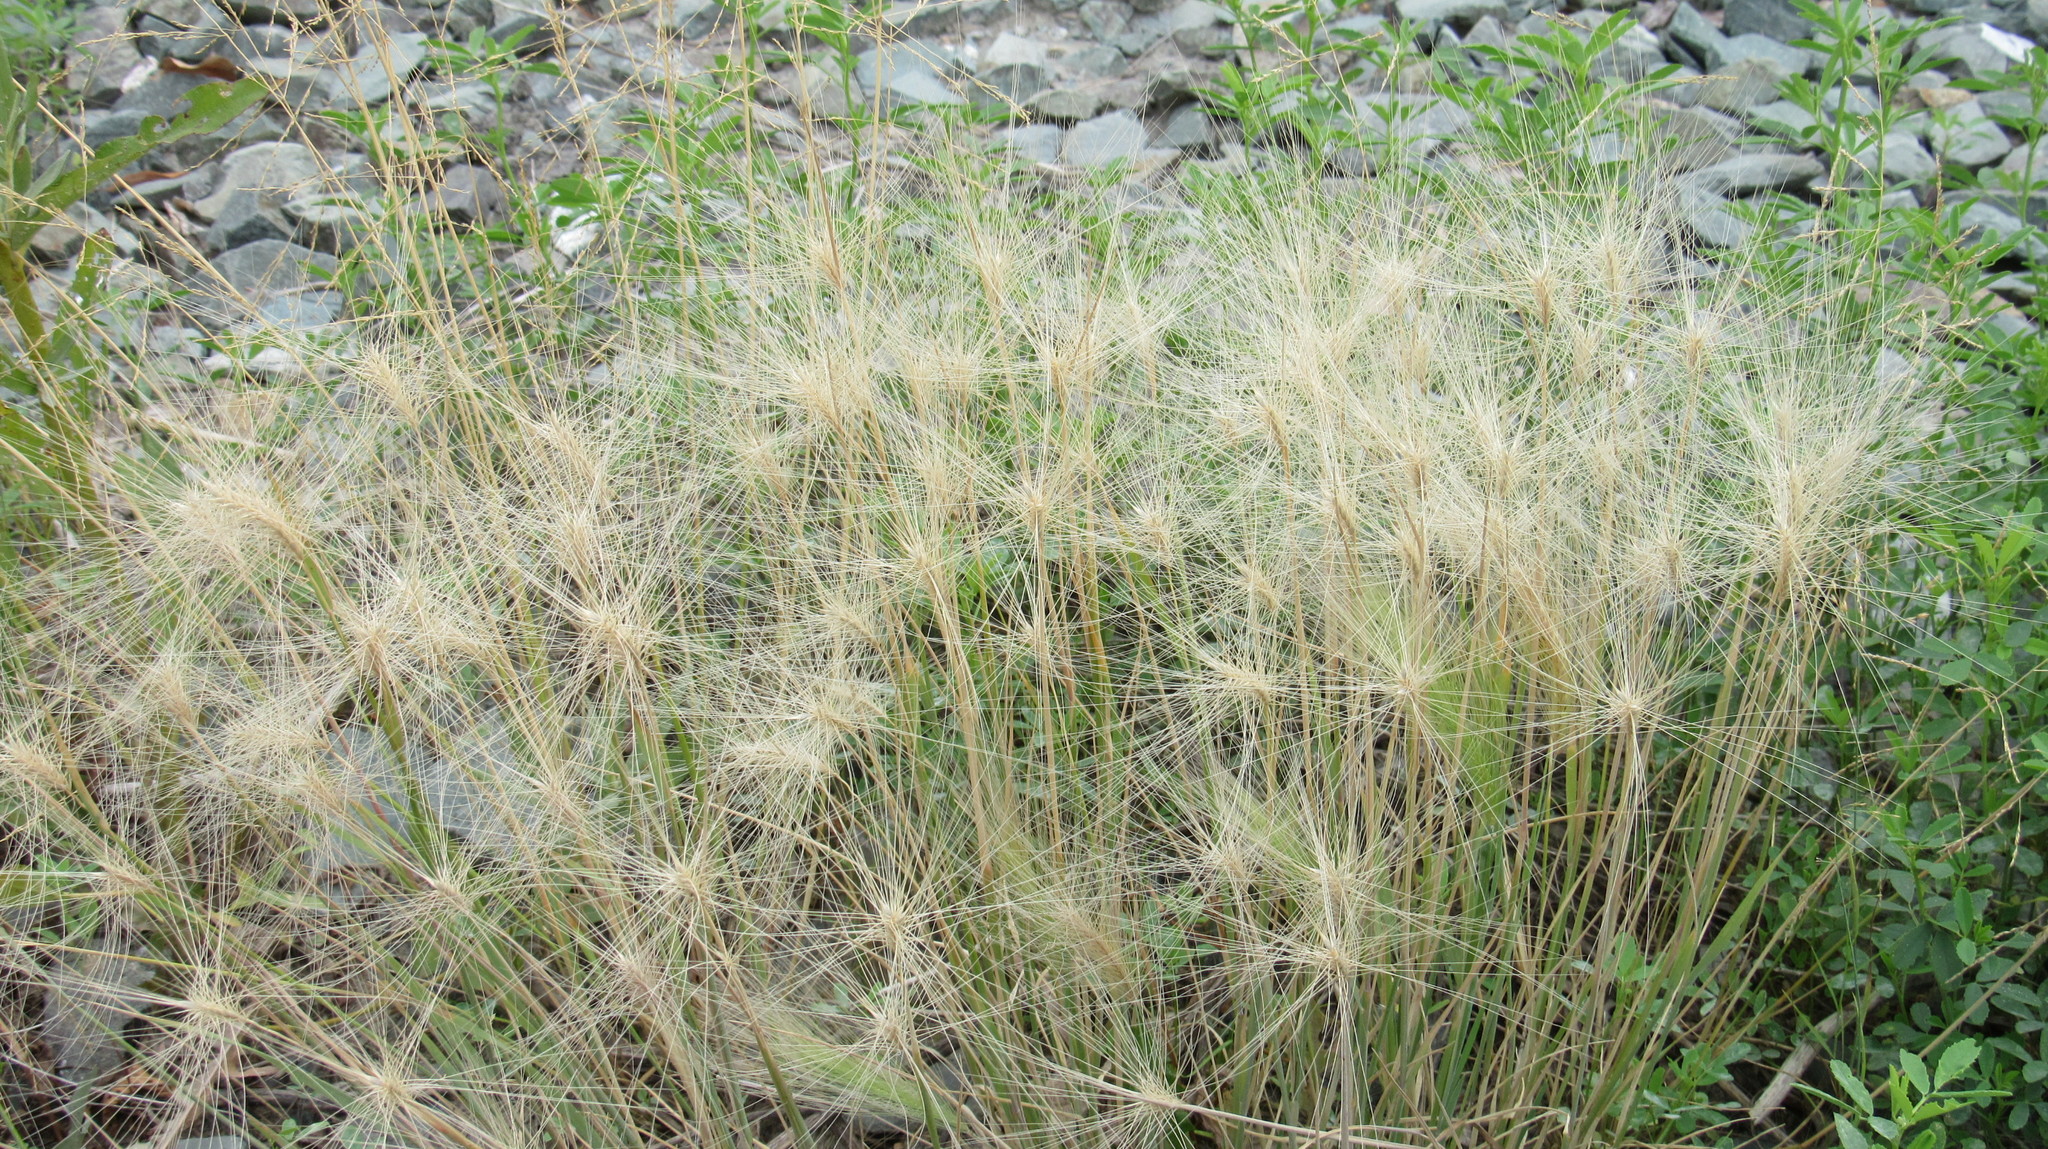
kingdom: Plantae
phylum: Tracheophyta
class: Liliopsida
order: Poales
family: Poaceae
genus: Hordeum
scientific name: Hordeum jubatum
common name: Foxtail barley
